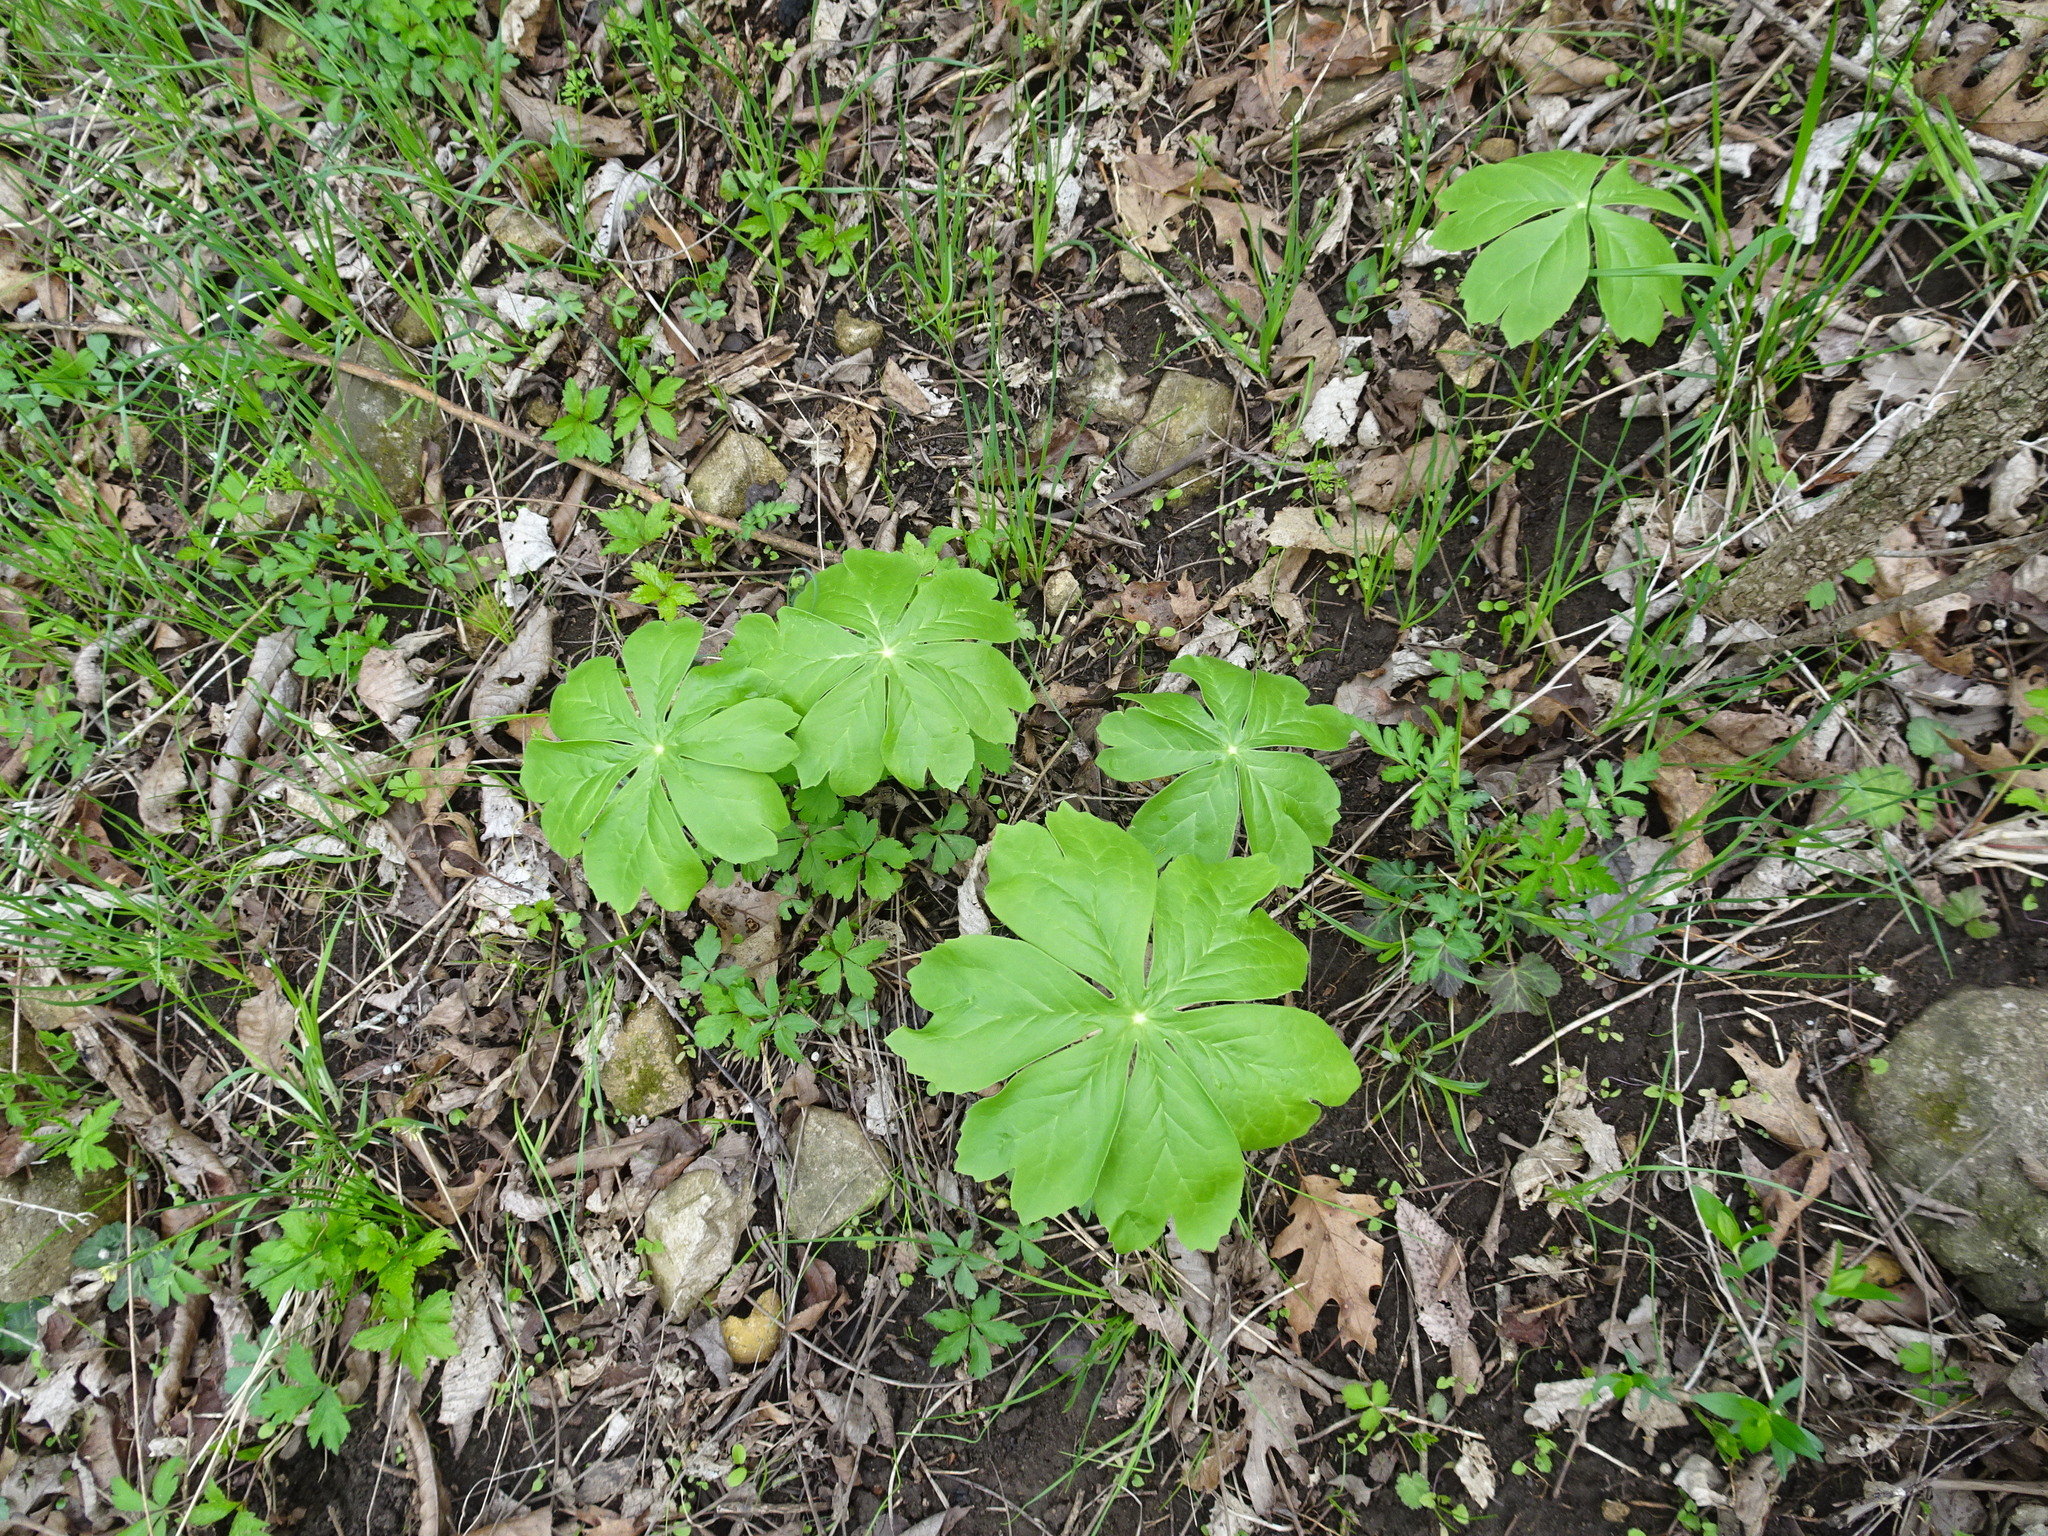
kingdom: Plantae
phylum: Tracheophyta
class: Magnoliopsida
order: Ranunculales
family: Berberidaceae
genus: Podophyllum
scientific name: Podophyllum peltatum
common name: Wild mandrake
